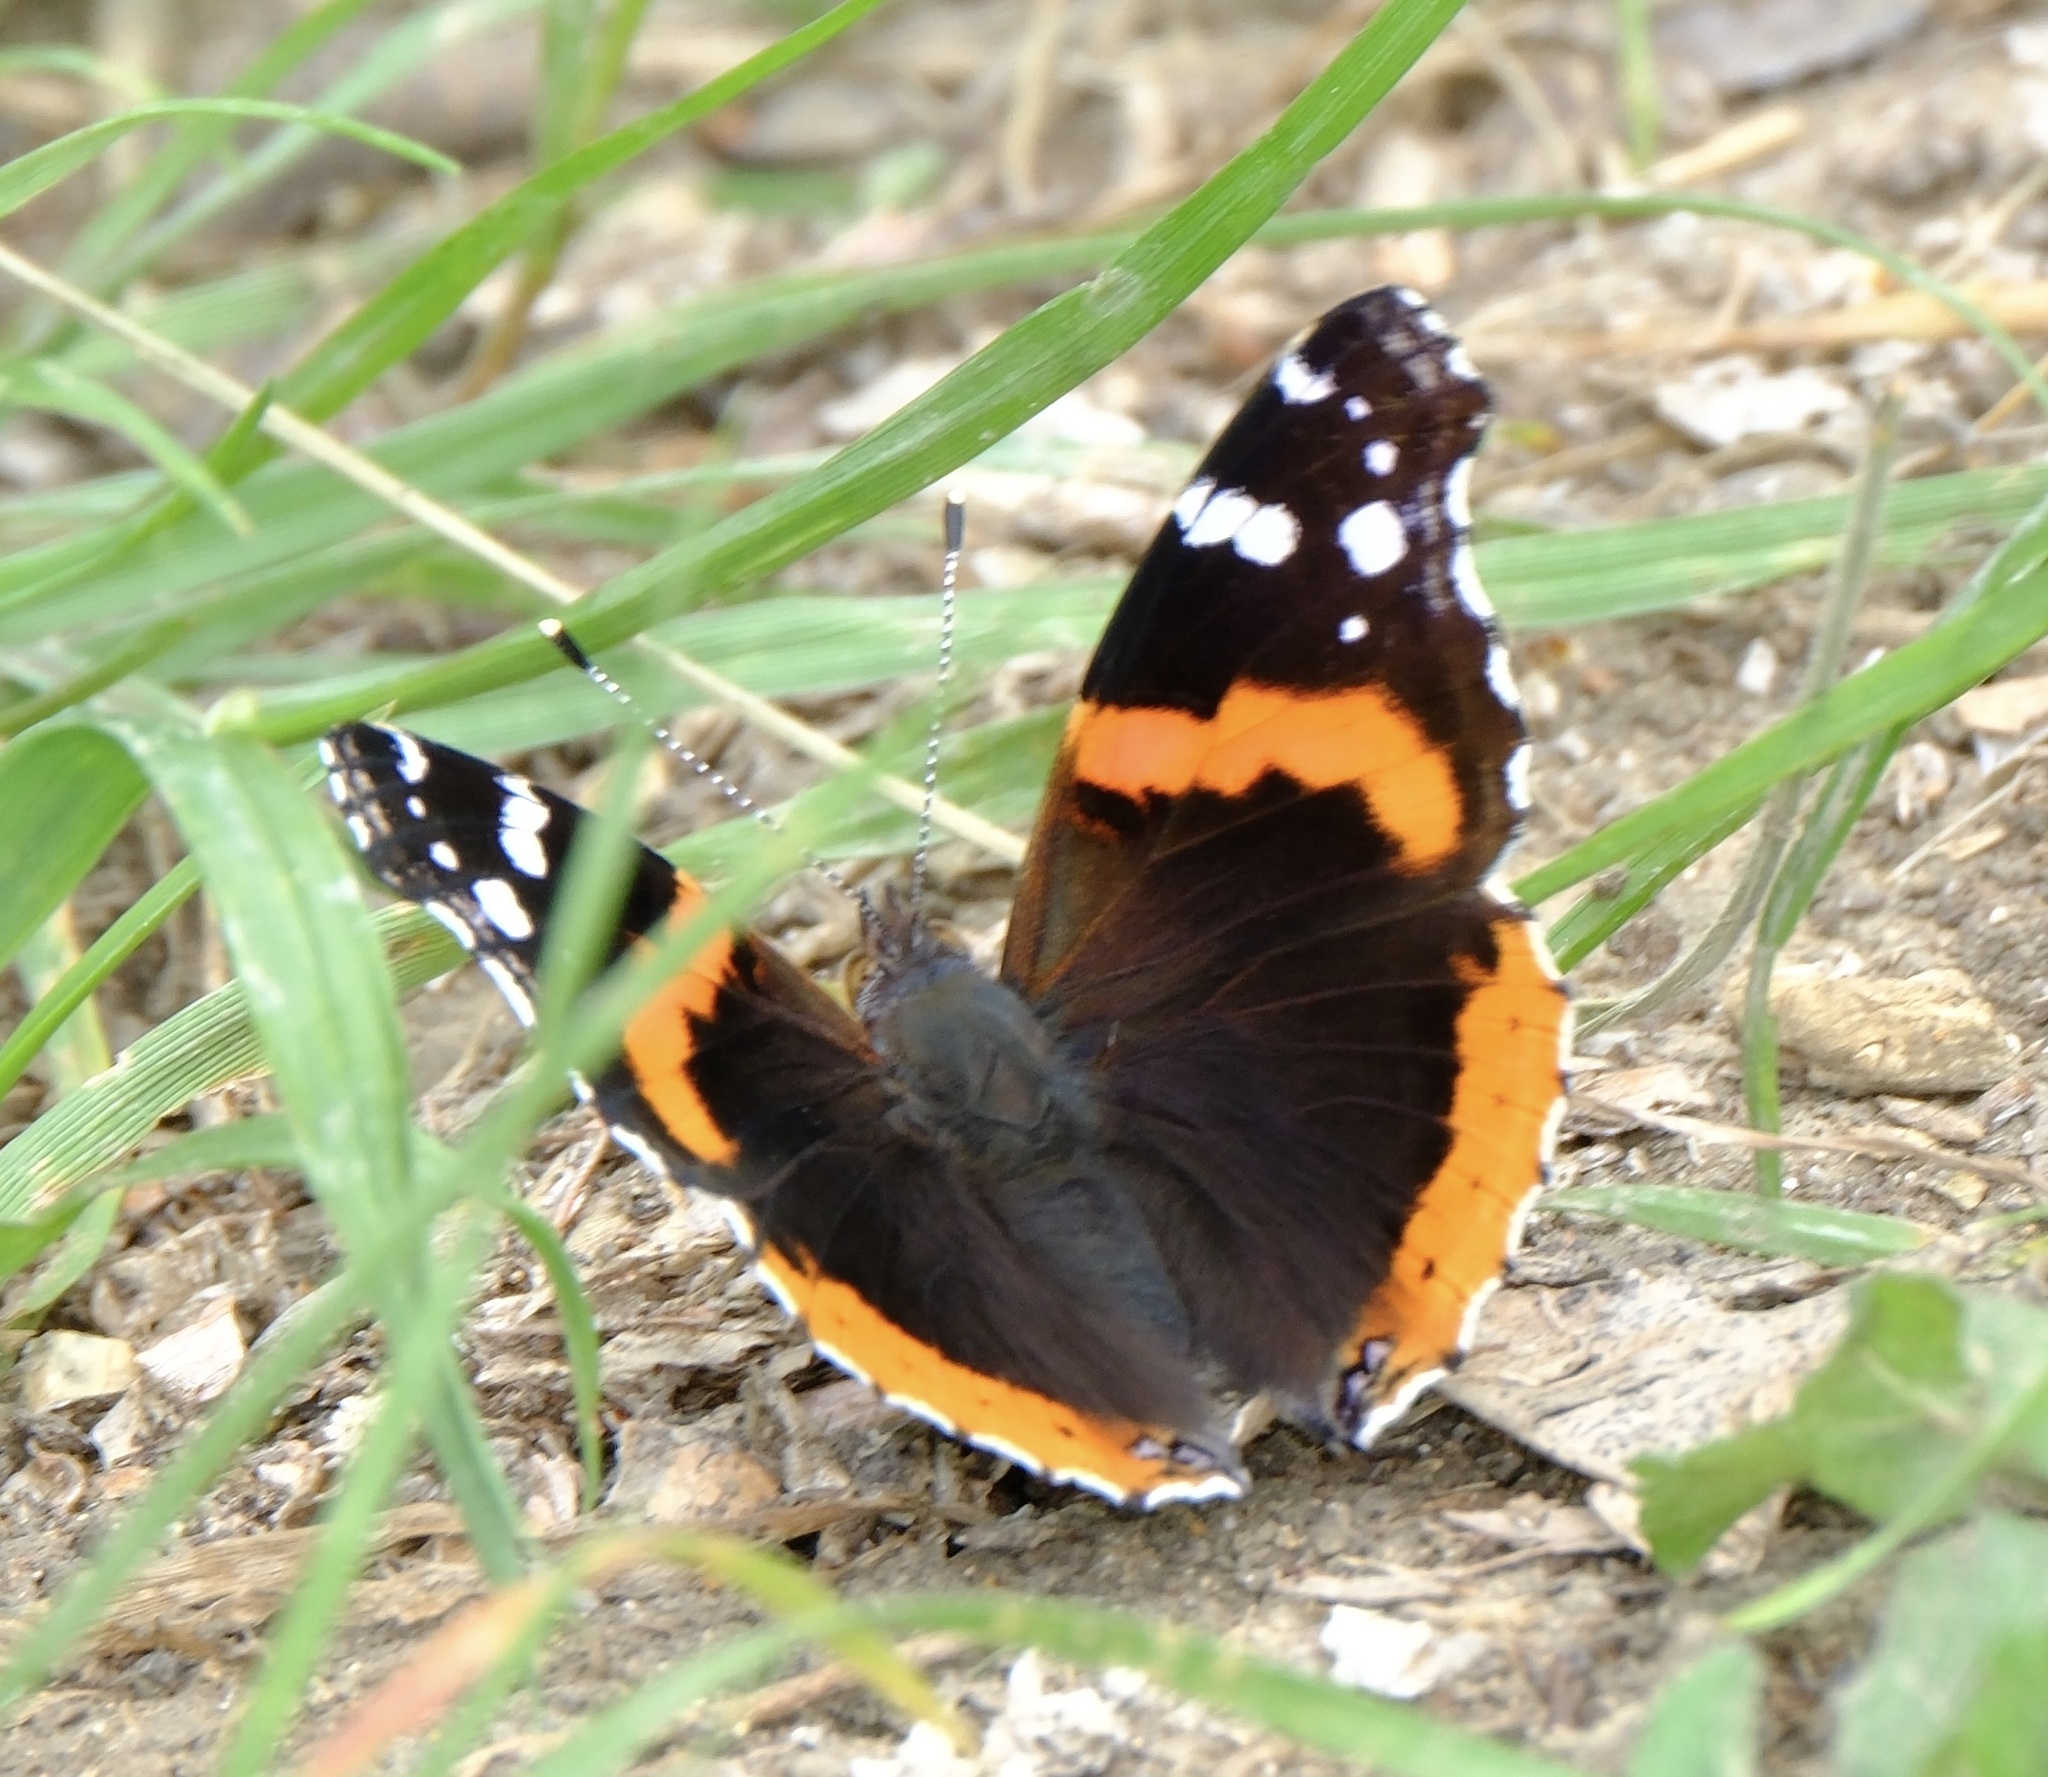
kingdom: Animalia
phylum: Arthropoda
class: Insecta
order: Lepidoptera
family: Nymphalidae
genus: Vanessa
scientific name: Vanessa atalanta
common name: Red admiral
